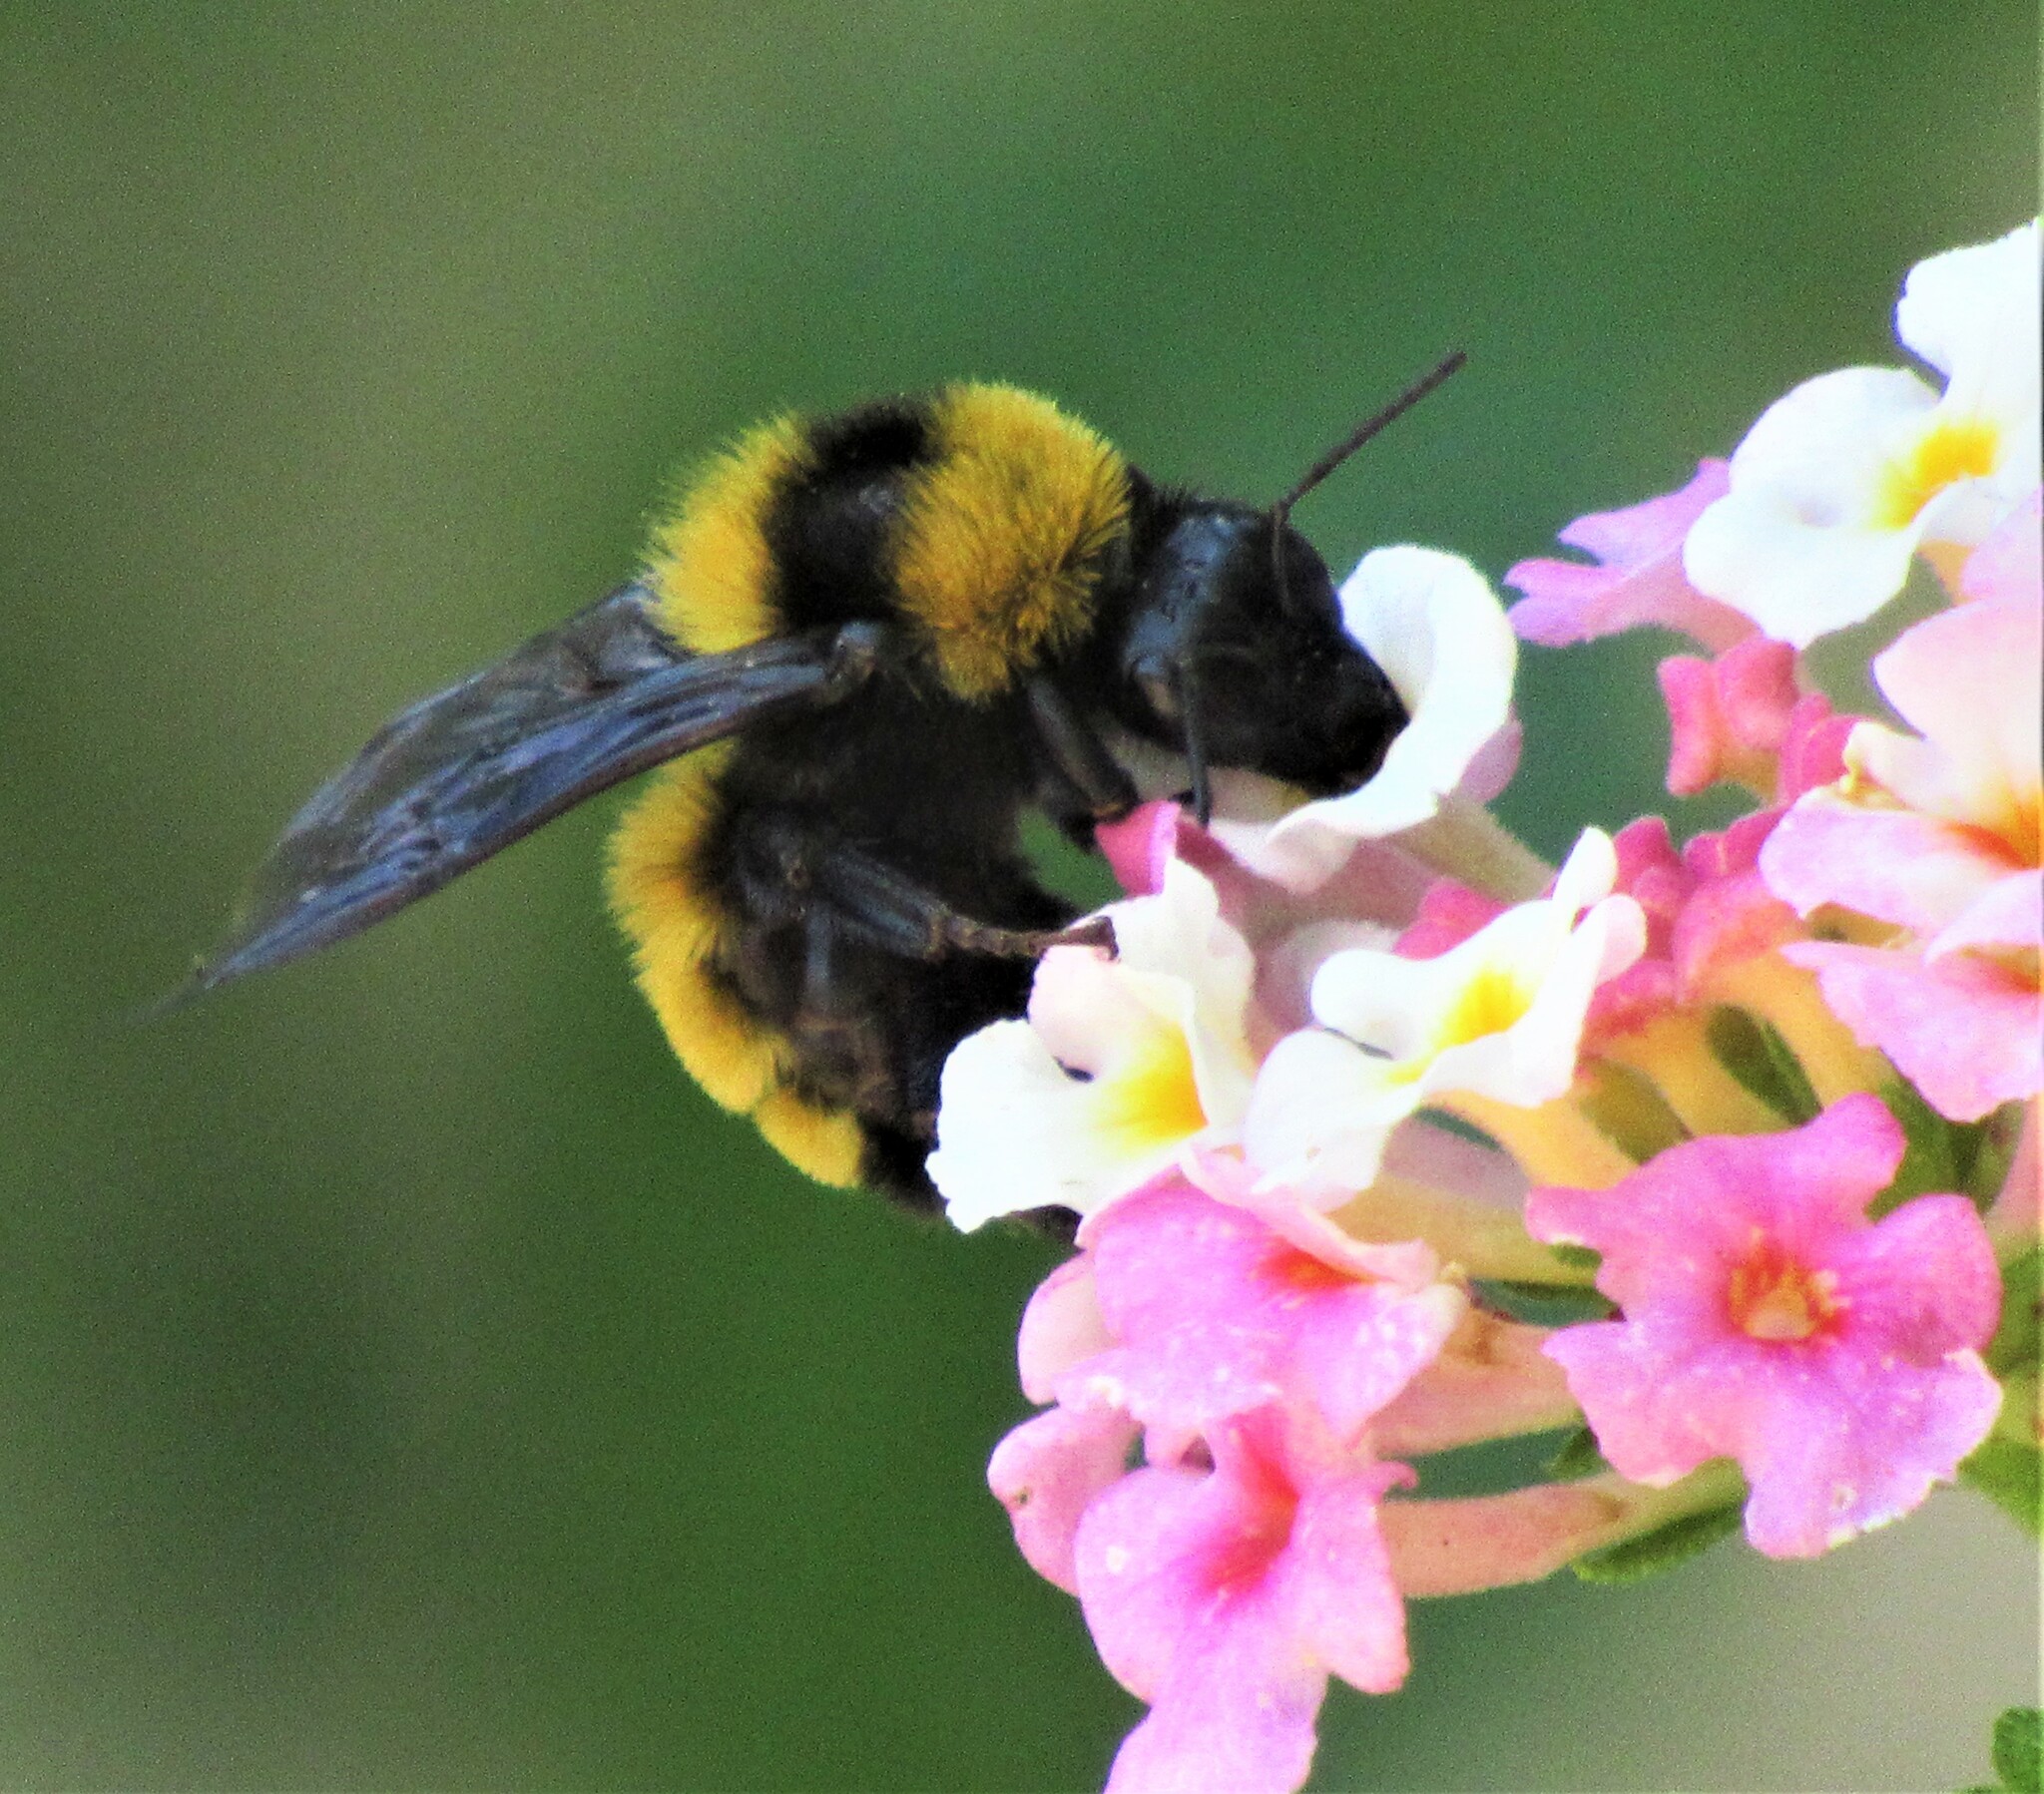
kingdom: Animalia
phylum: Arthropoda
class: Insecta
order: Hymenoptera
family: Apidae
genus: Bombus
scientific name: Bombus sonorus
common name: Sonoran bumble bee
